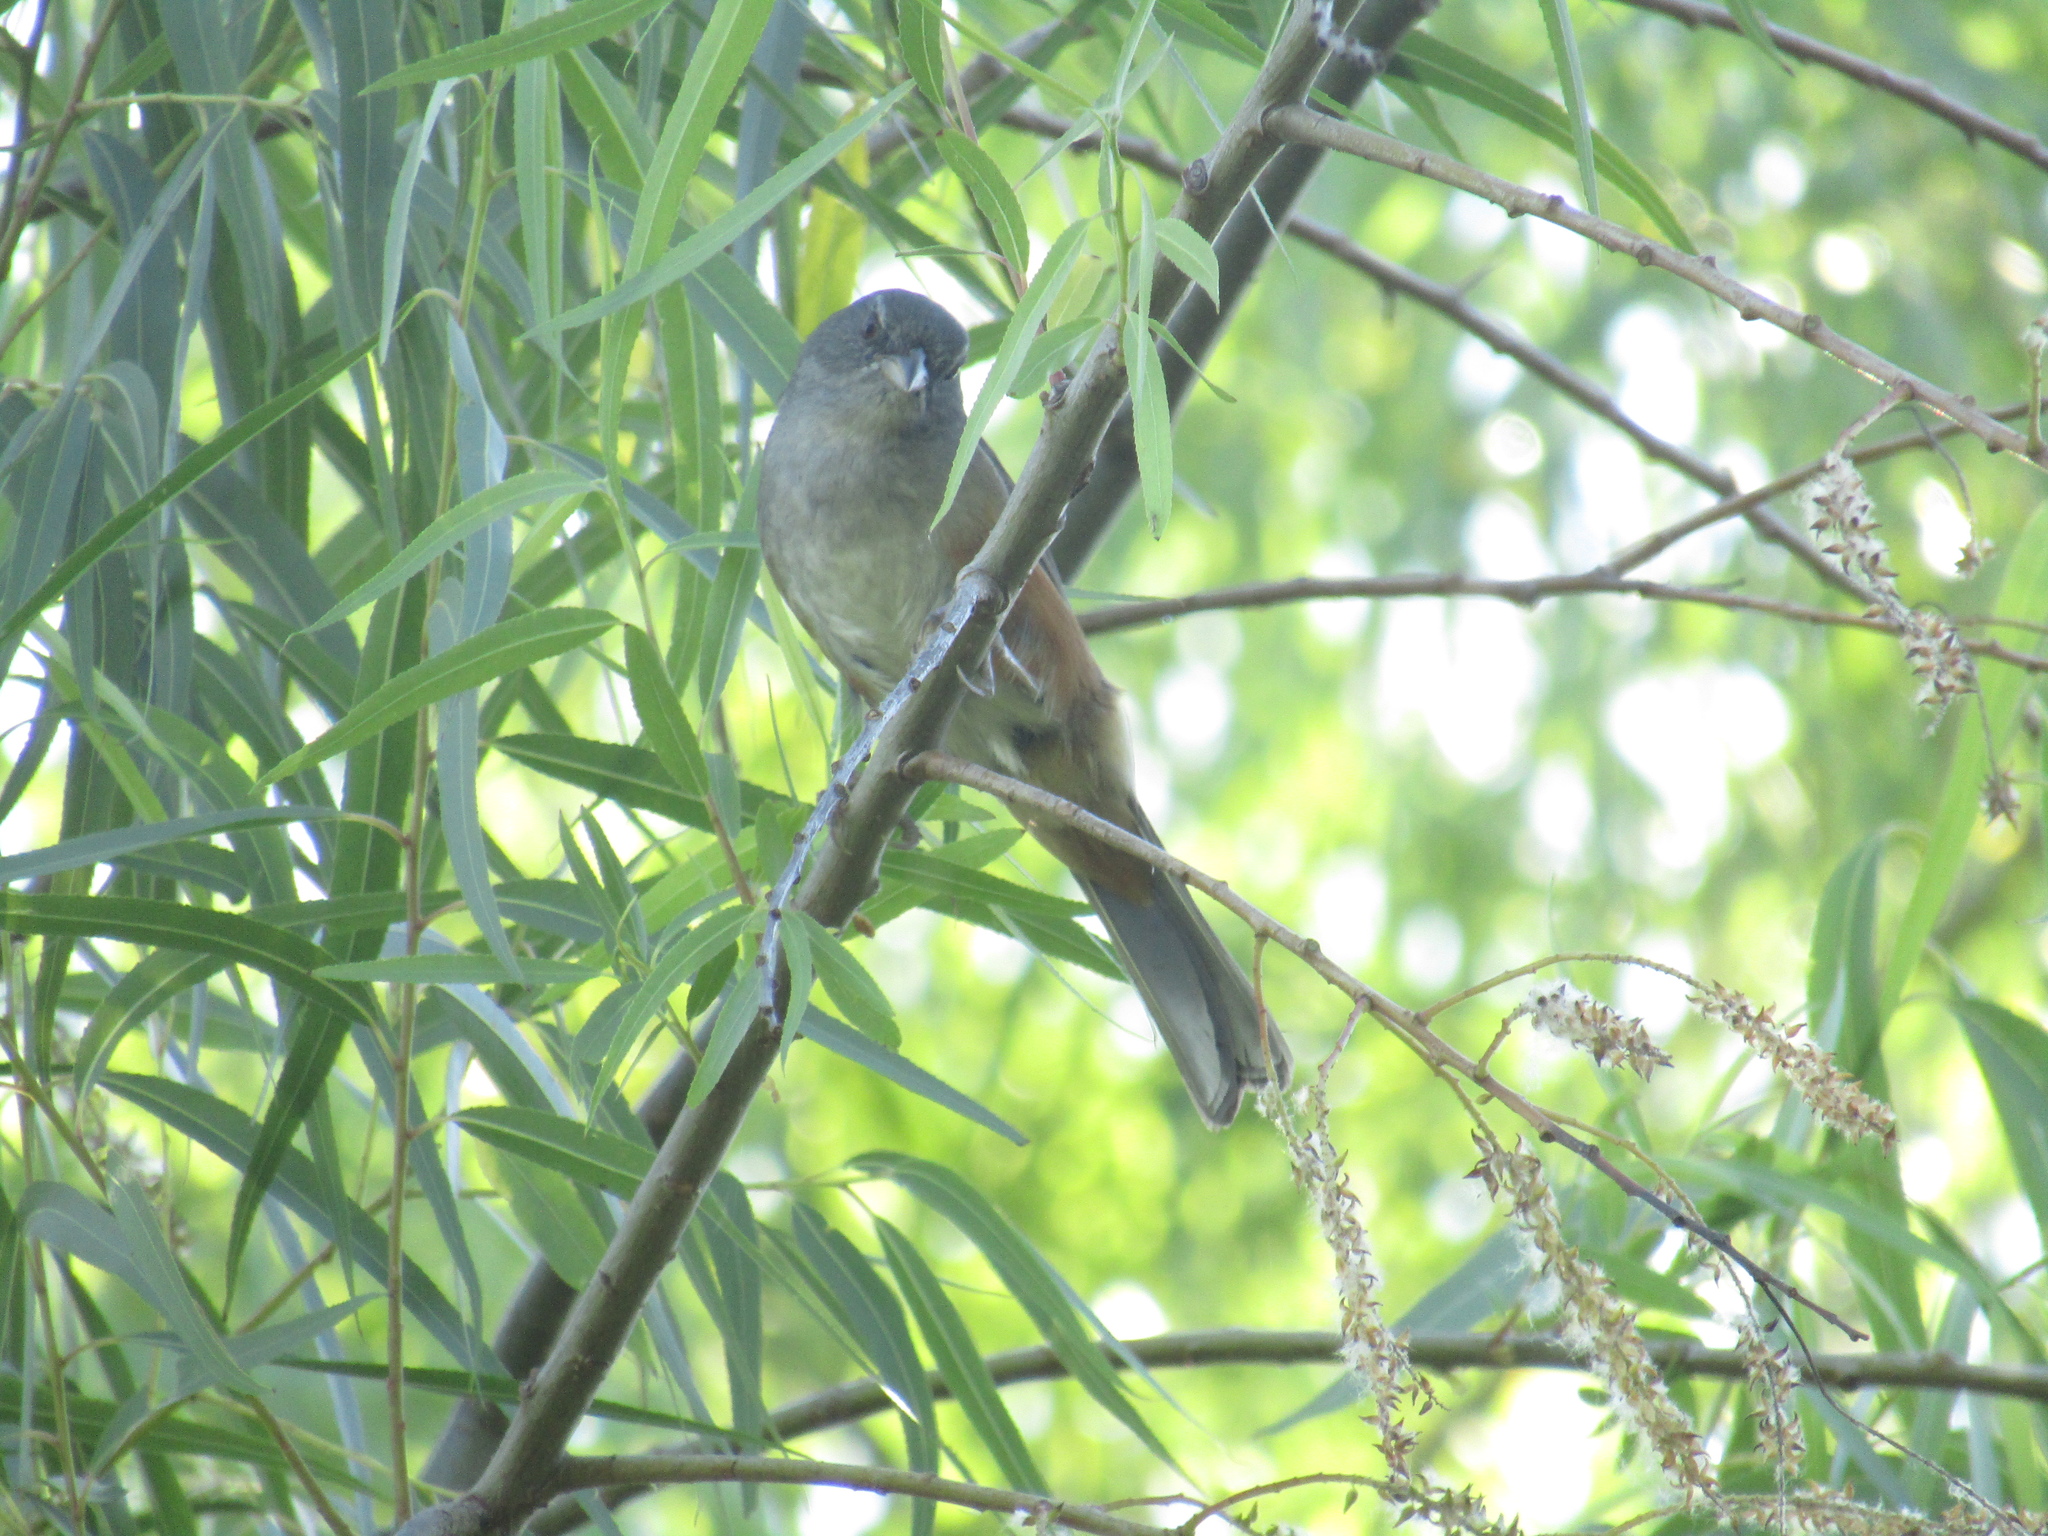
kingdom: Animalia
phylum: Chordata
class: Aves
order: Passeriformes
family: Thraupidae
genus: Microspingus
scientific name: Microspingus cabanisi
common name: Gray-throated warbling-finch
